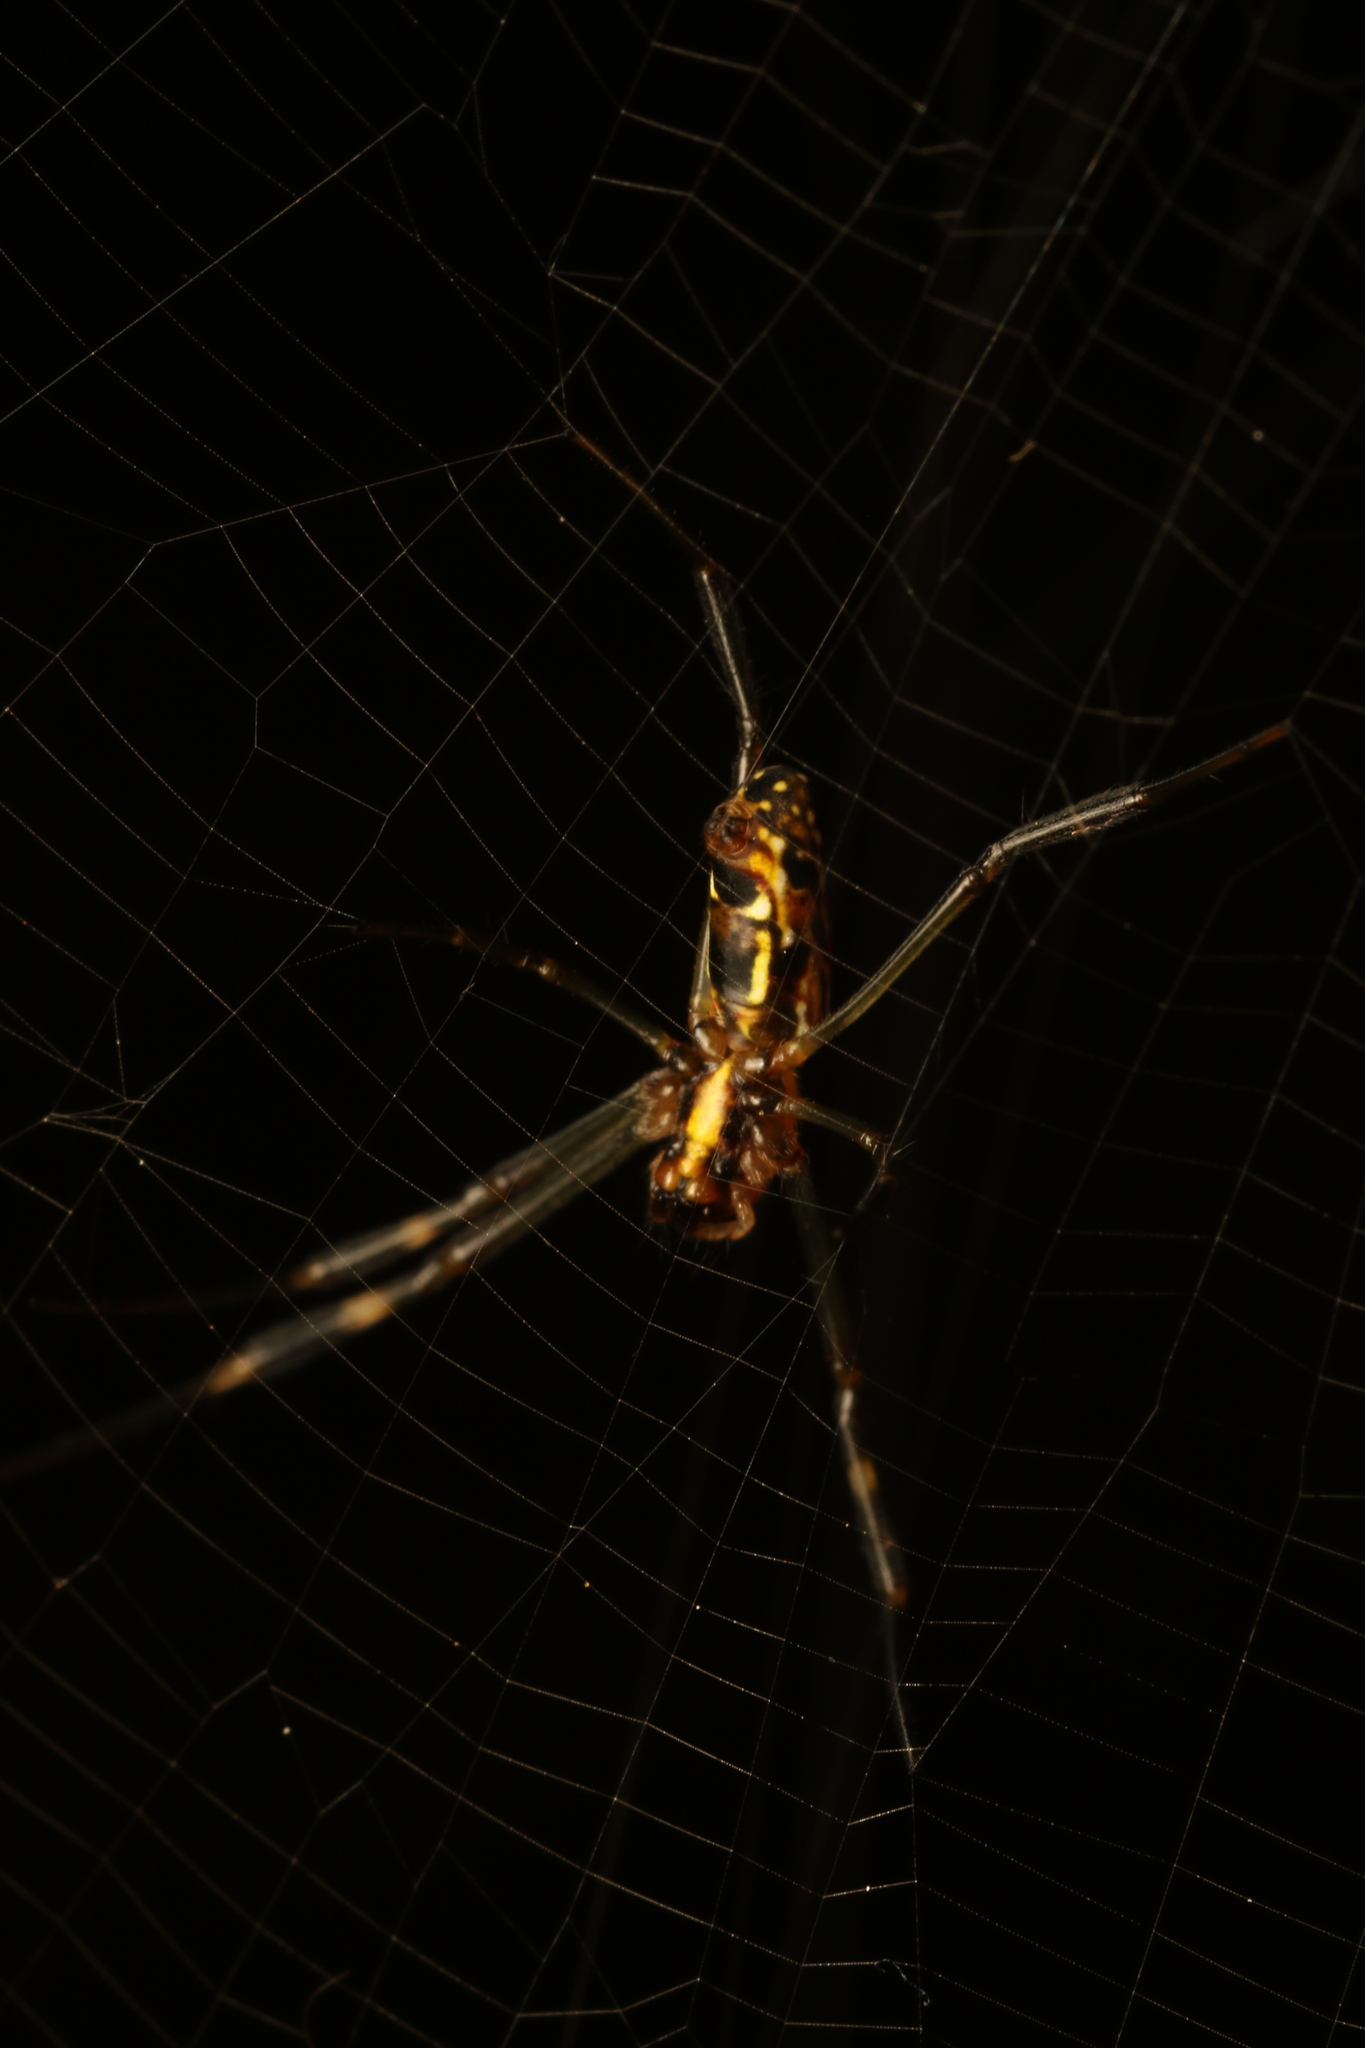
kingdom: Animalia
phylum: Arthropoda
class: Arachnida
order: Araneae
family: Araneidae
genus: Trichonephila
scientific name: Trichonephila clavipes
